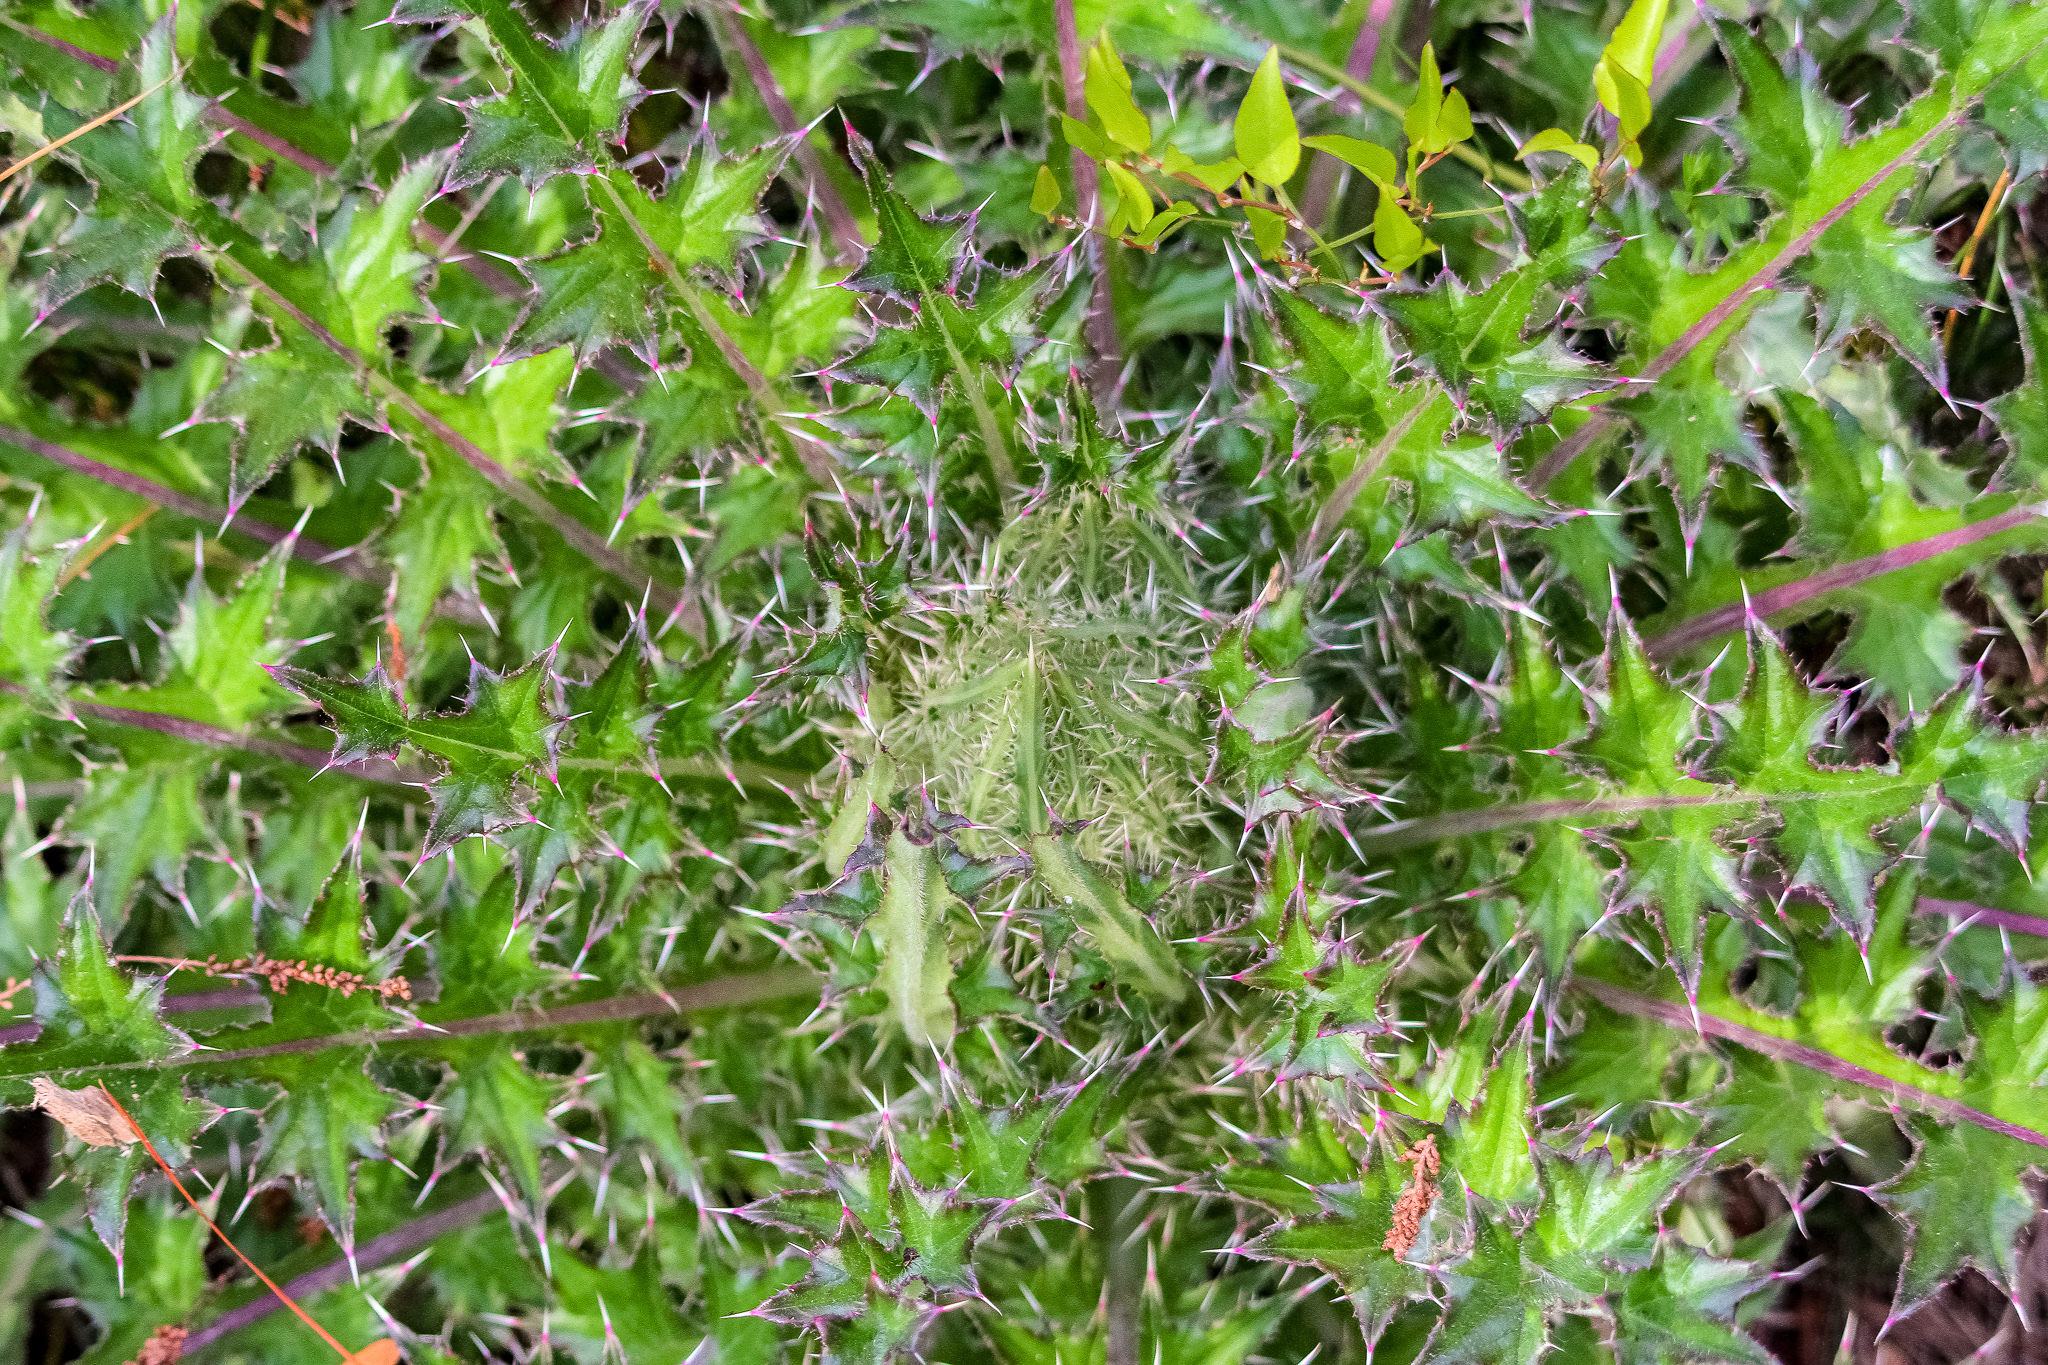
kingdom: Plantae
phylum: Tracheophyta
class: Magnoliopsida
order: Asterales
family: Asteraceae
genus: Cirsium
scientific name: Cirsium horridulum
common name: Bristly thistle
